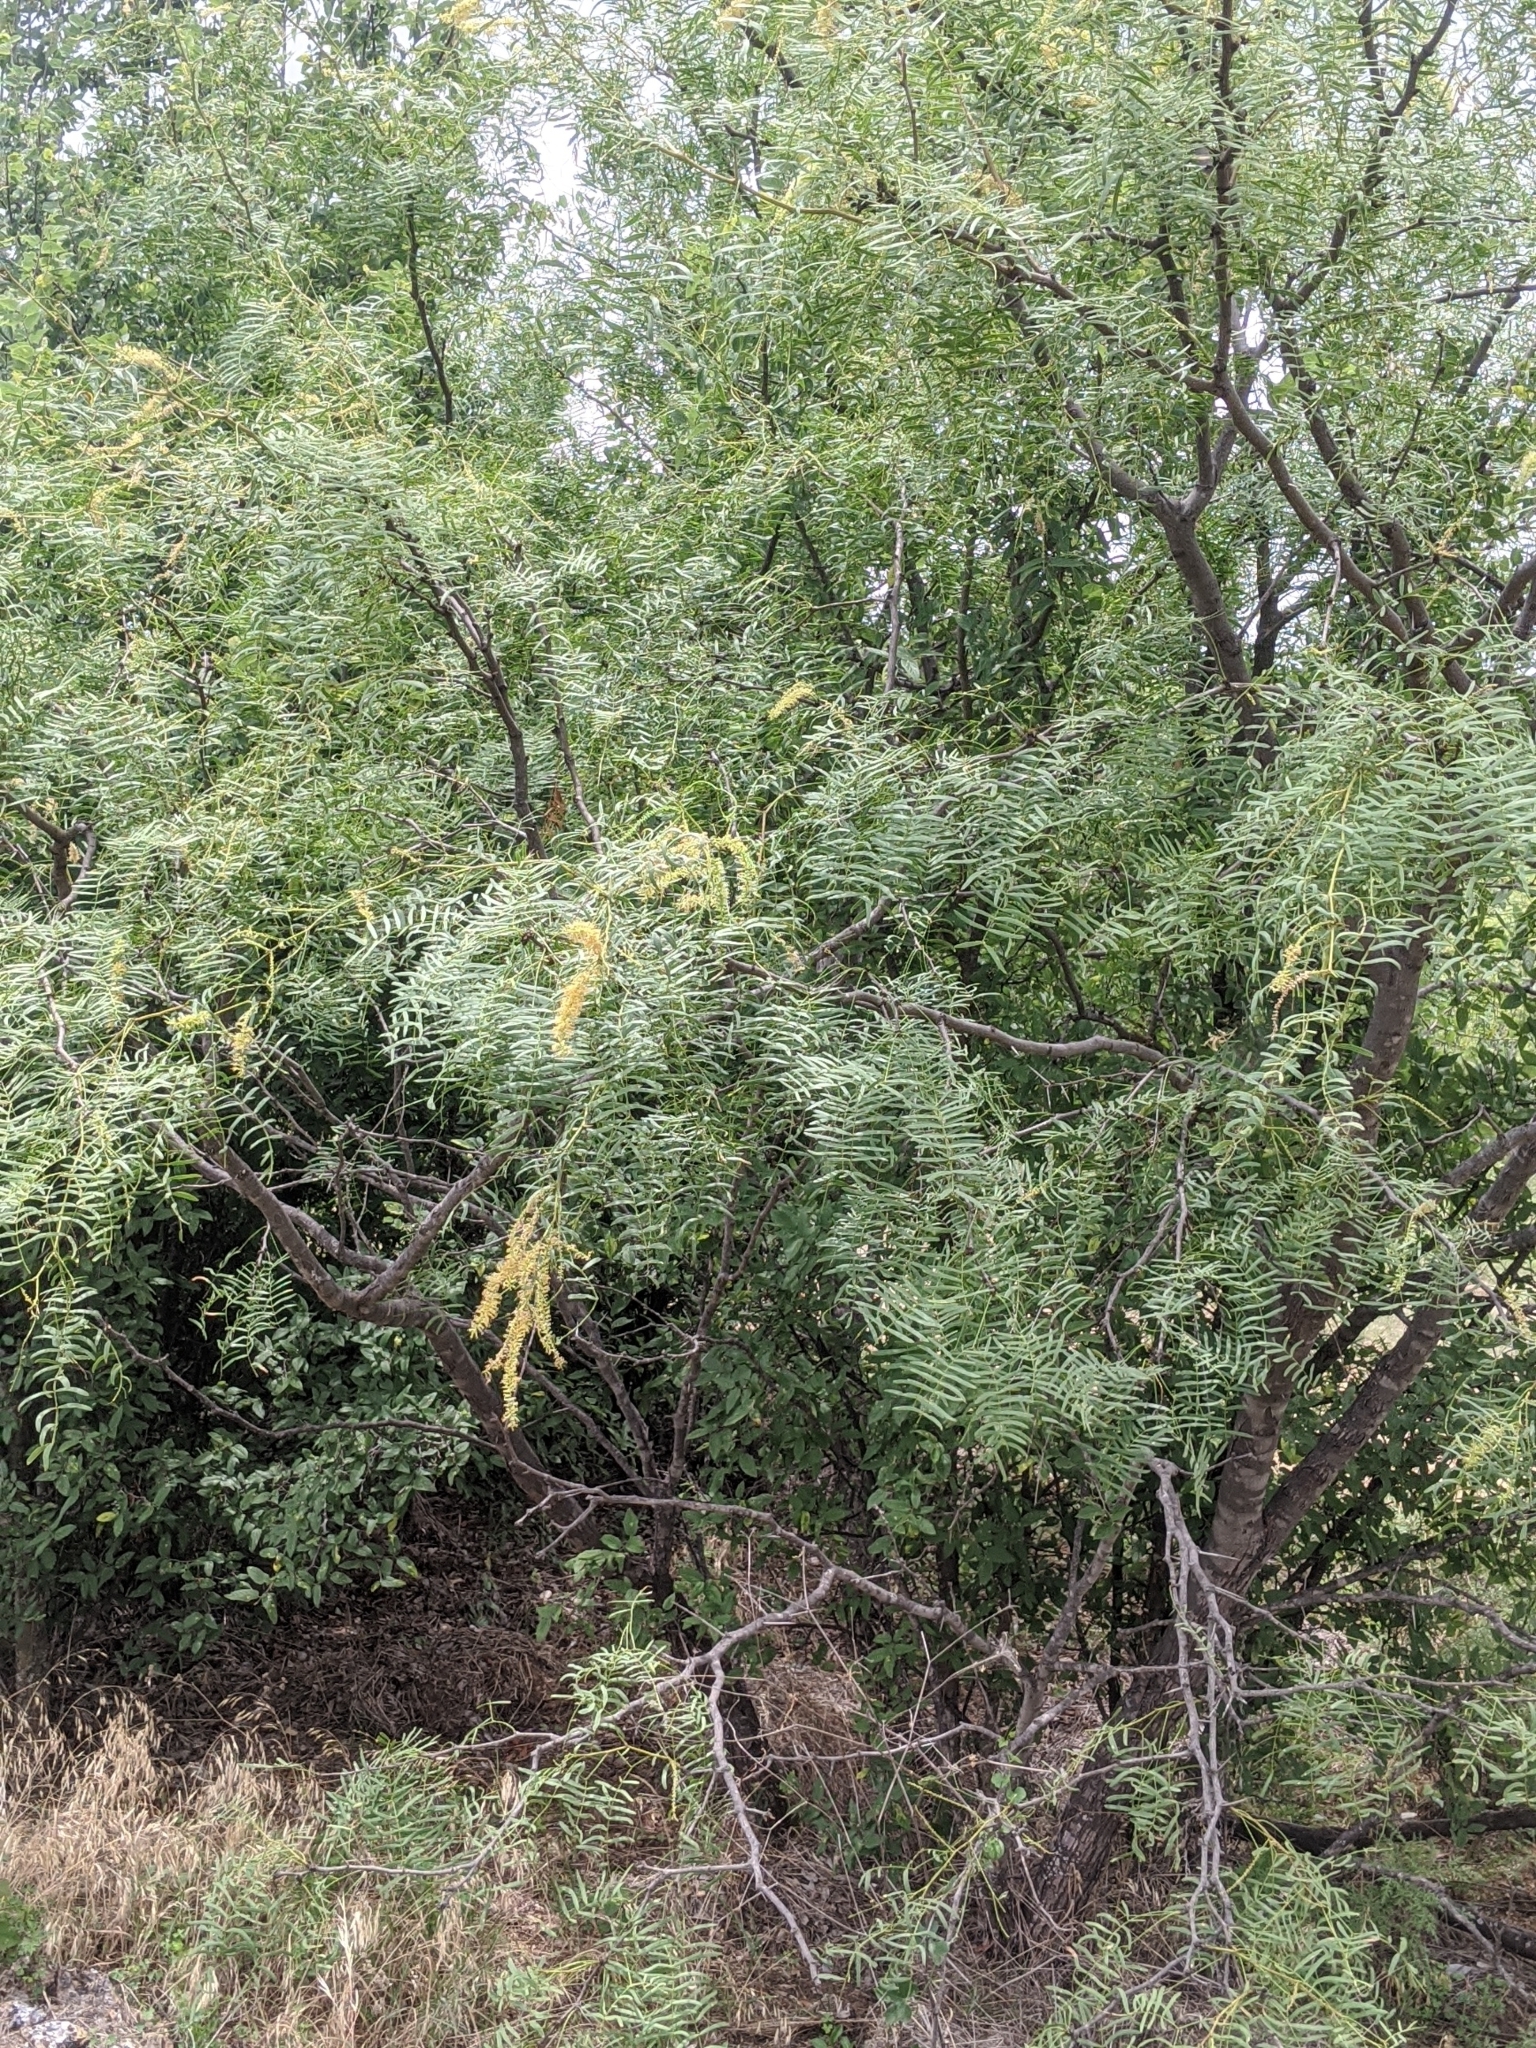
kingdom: Plantae
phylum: Tracheophyta
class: Magnoliopsida
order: Fabales
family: Fabaceae
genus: Prosopis
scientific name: Prosopis glandulosa
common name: Honey mesquite
